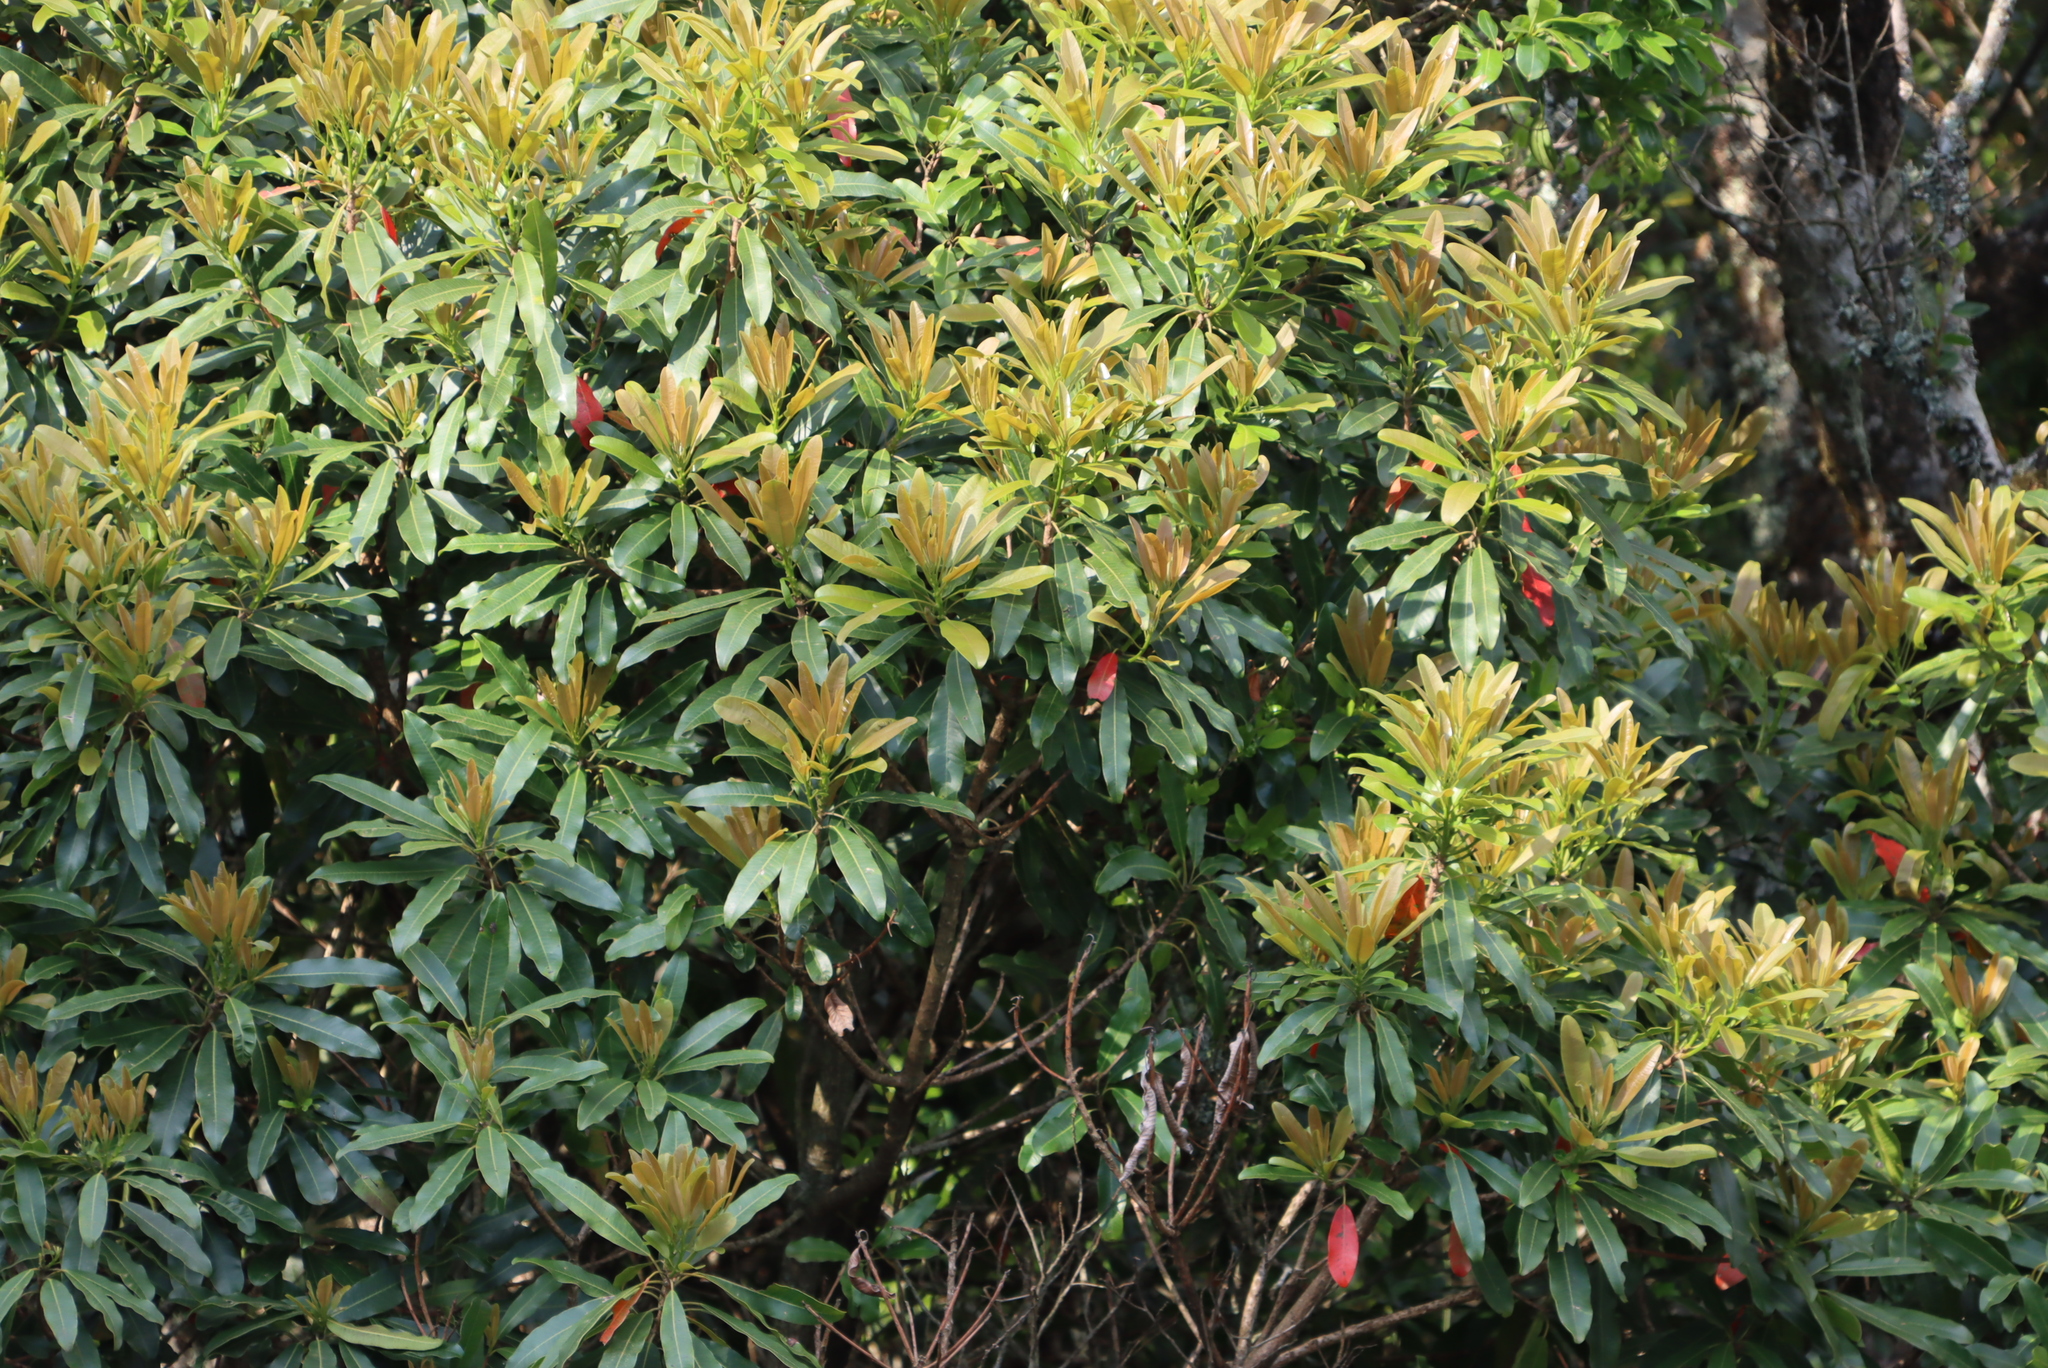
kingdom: Plantae
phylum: Tracheophyta
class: Magnoliopsida
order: Sapindales
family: Anacardiaceae
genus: Protorhus
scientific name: Protorhus longifolia
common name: Red-beech
